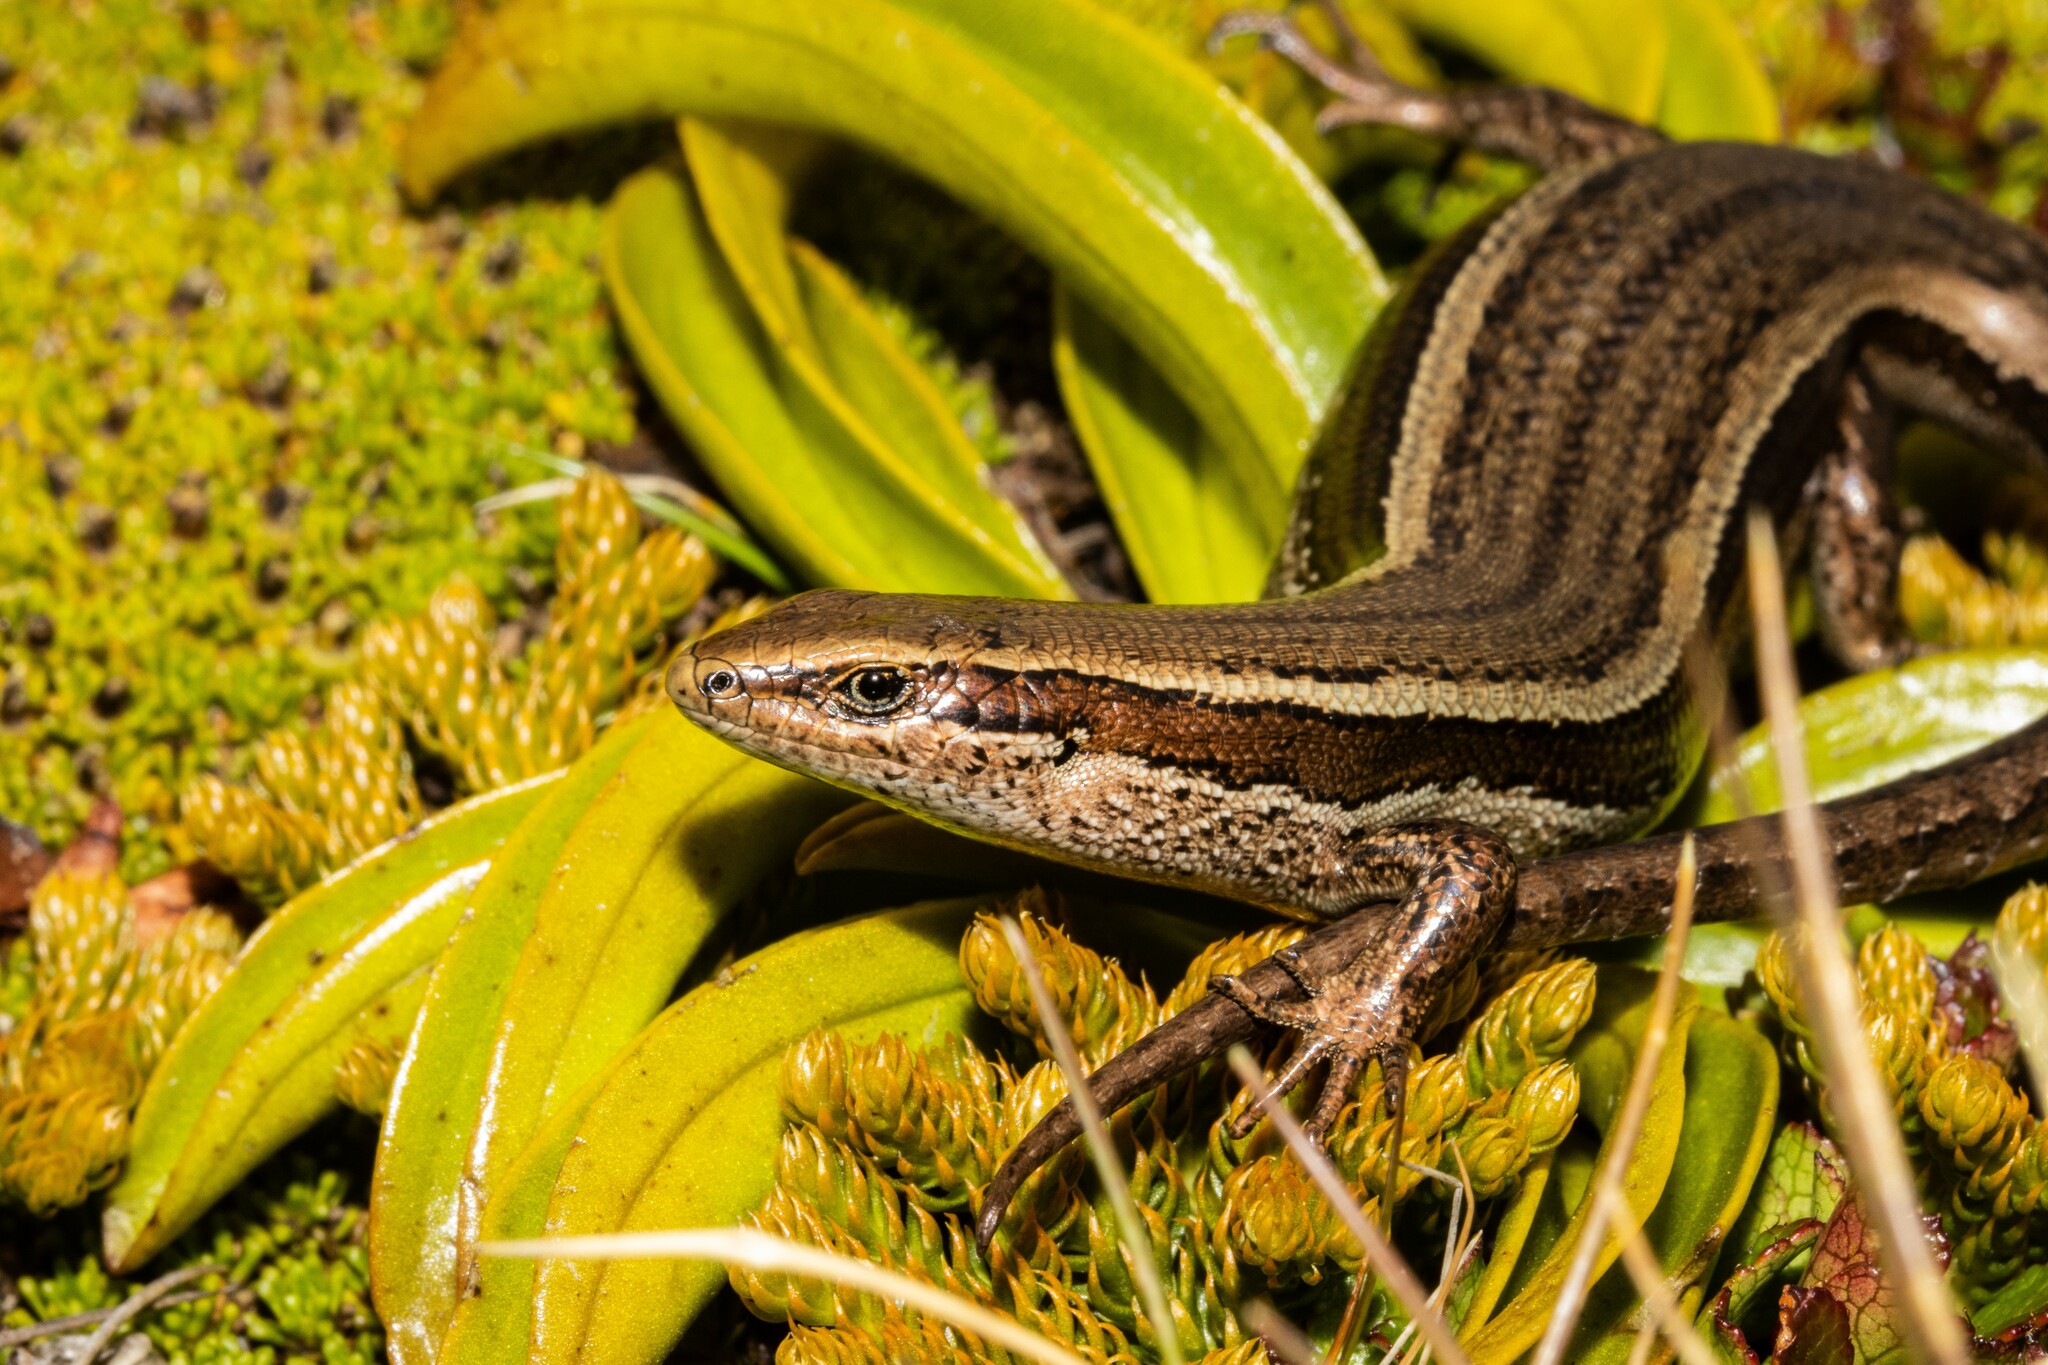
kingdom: Animalia
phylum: Chordata
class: Squamata
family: Scincidae
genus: Oligosoma
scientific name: Oligosoma
